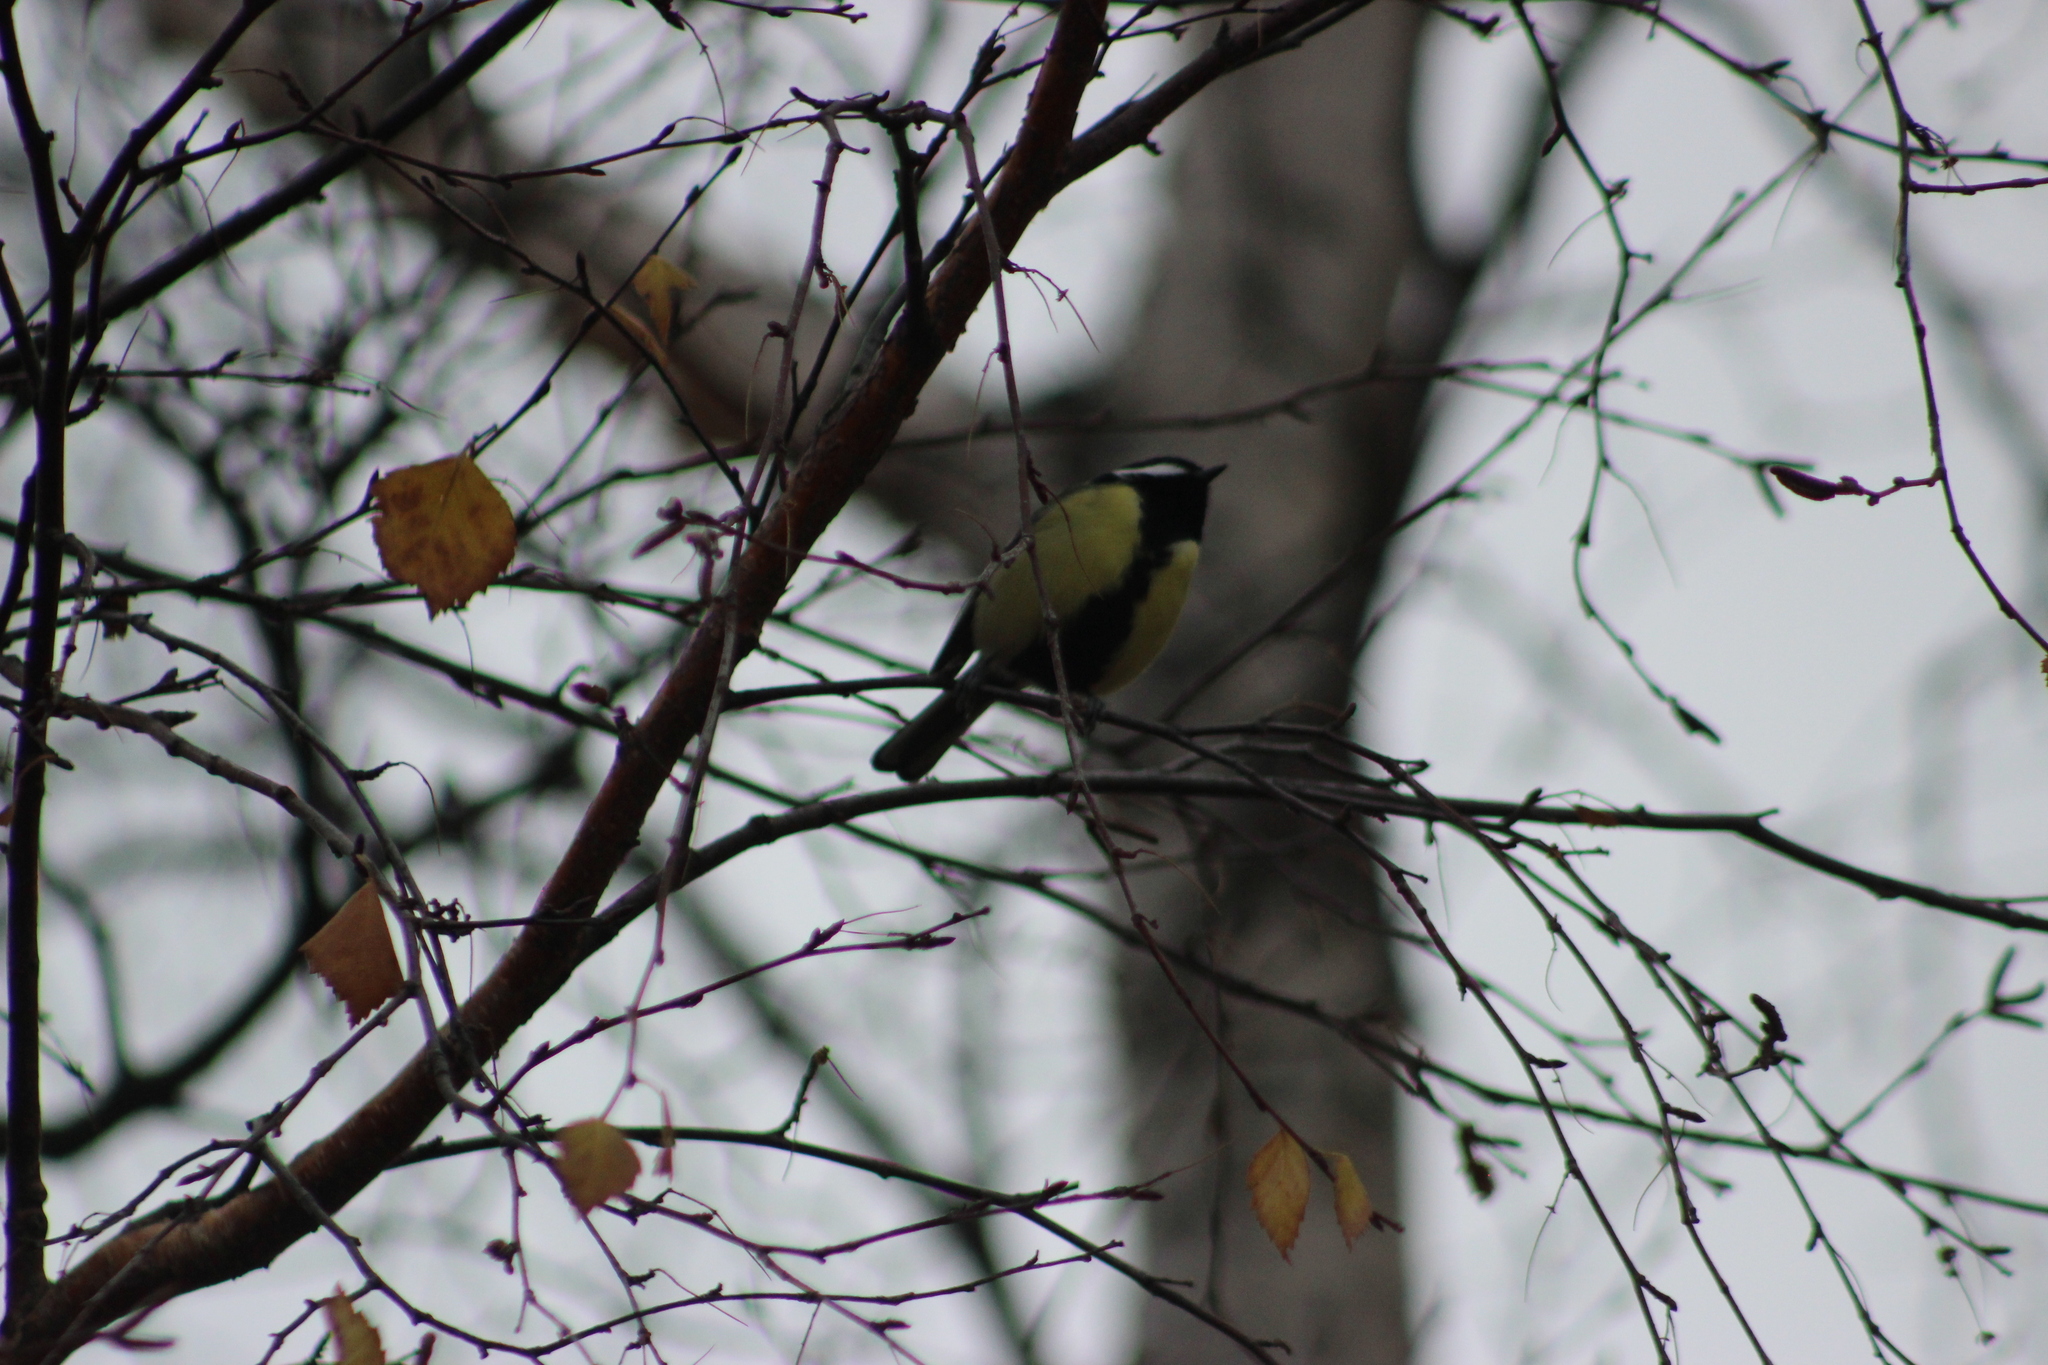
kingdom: Animalia
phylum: Chordata
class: Aves
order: Passeriformes
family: Paridae
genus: Parus
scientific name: Parus major
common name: Great tit
